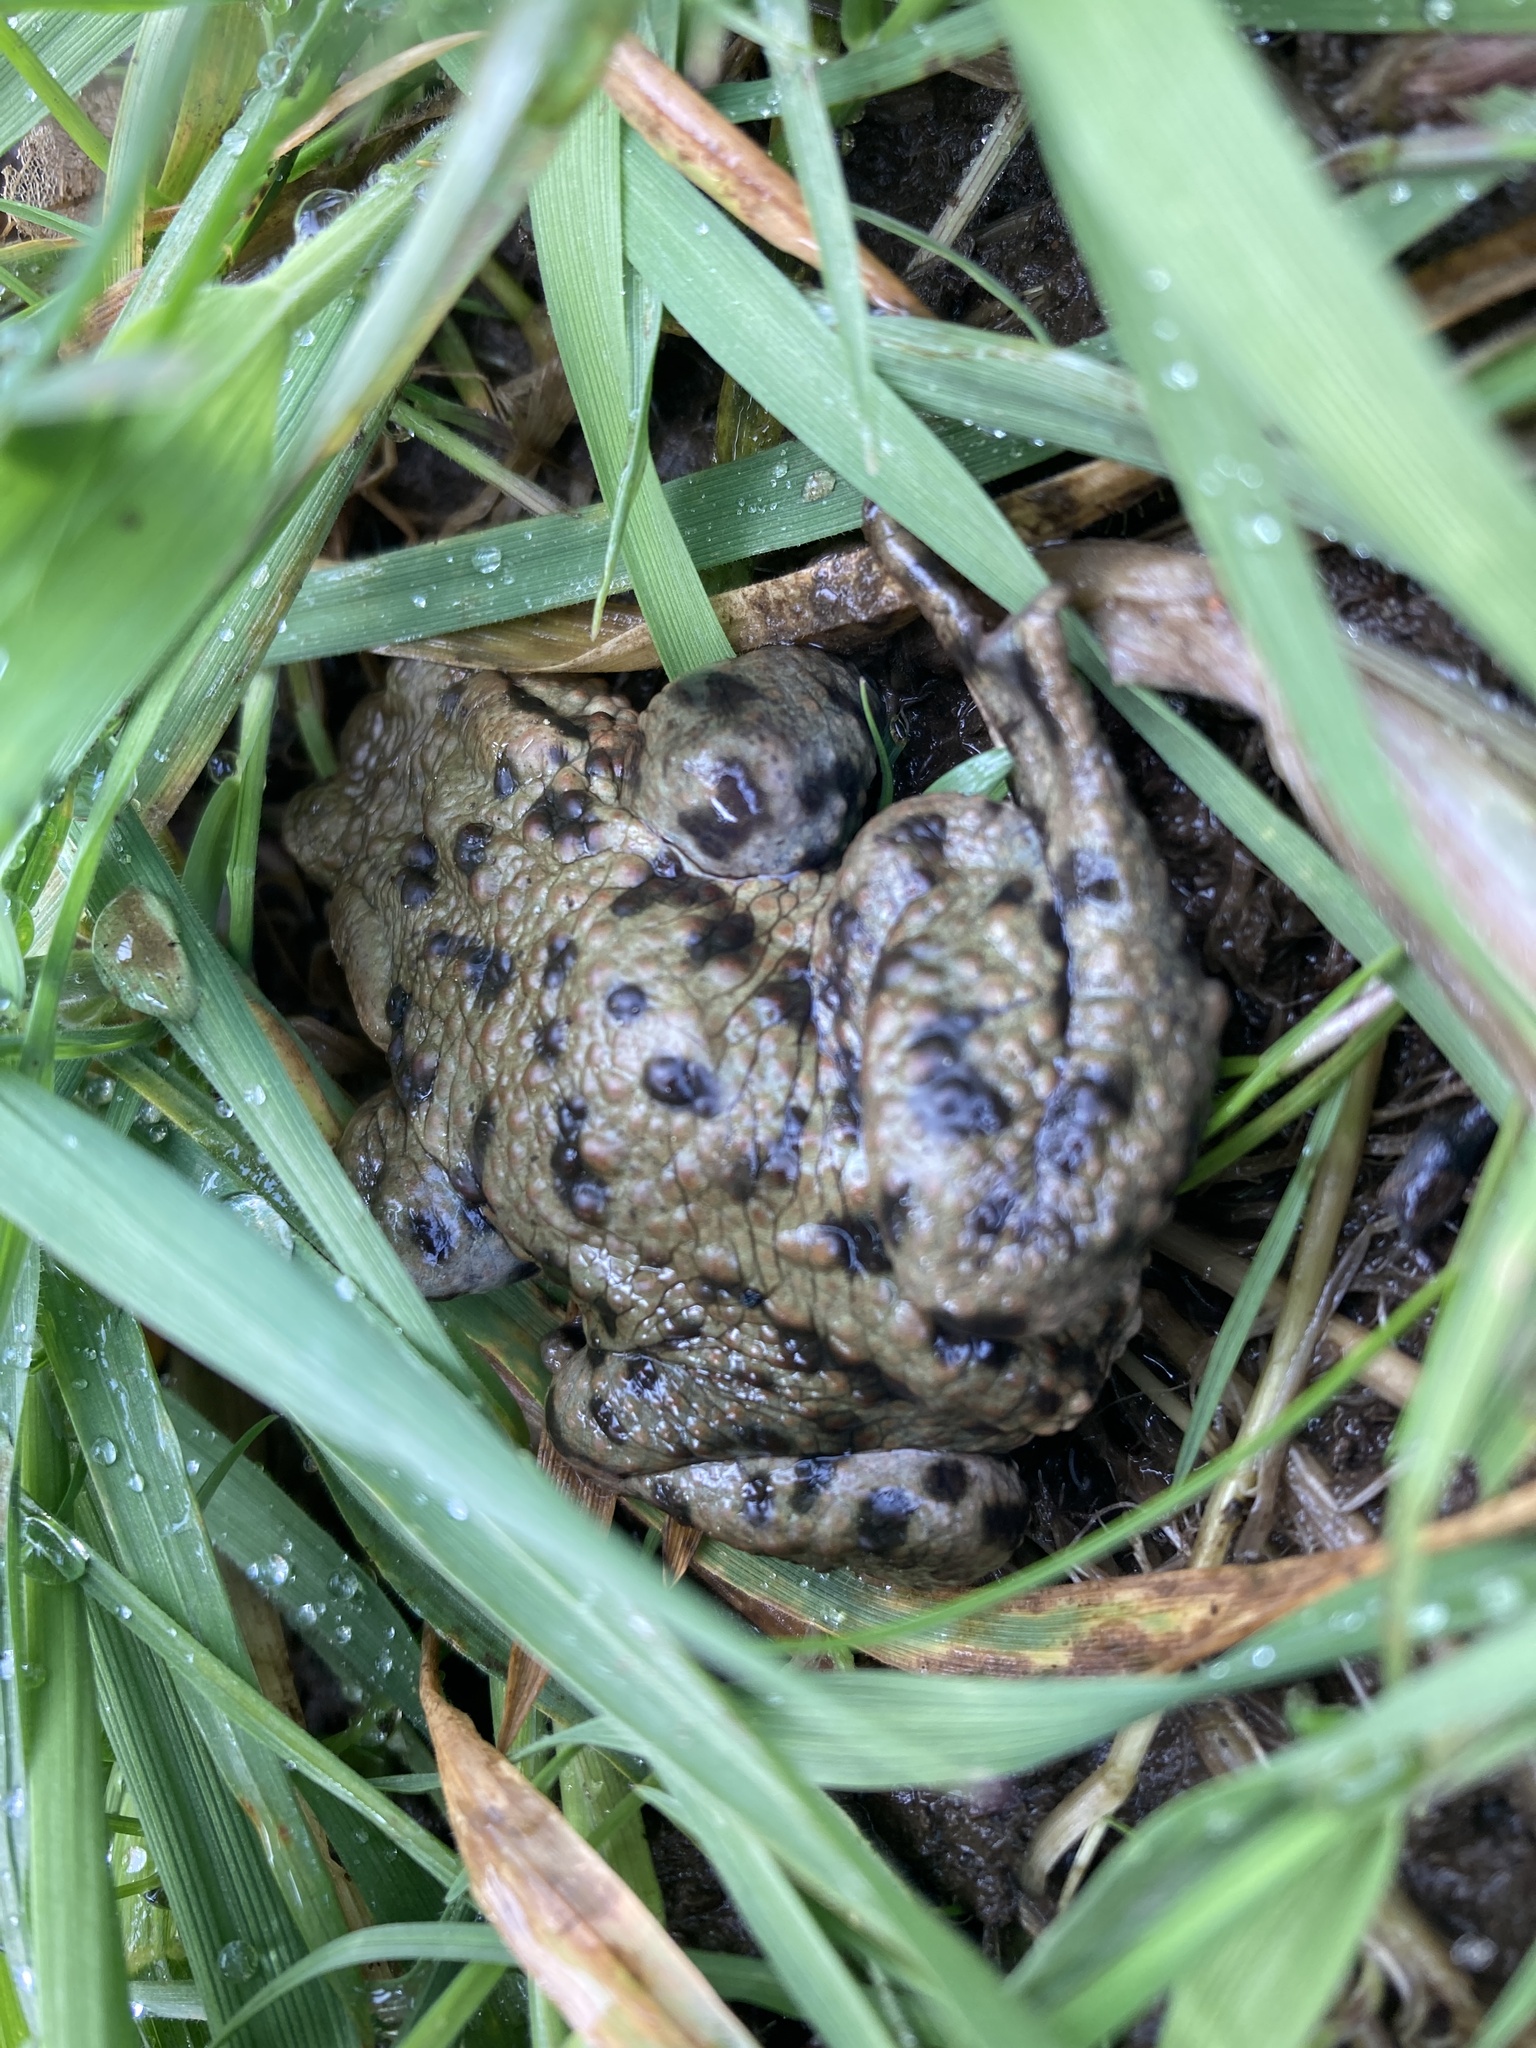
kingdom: Animalia
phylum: Chordata
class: Amphibia
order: Anura
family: Bufonidae
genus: Bufo
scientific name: Bufo bufo
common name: Common toad
